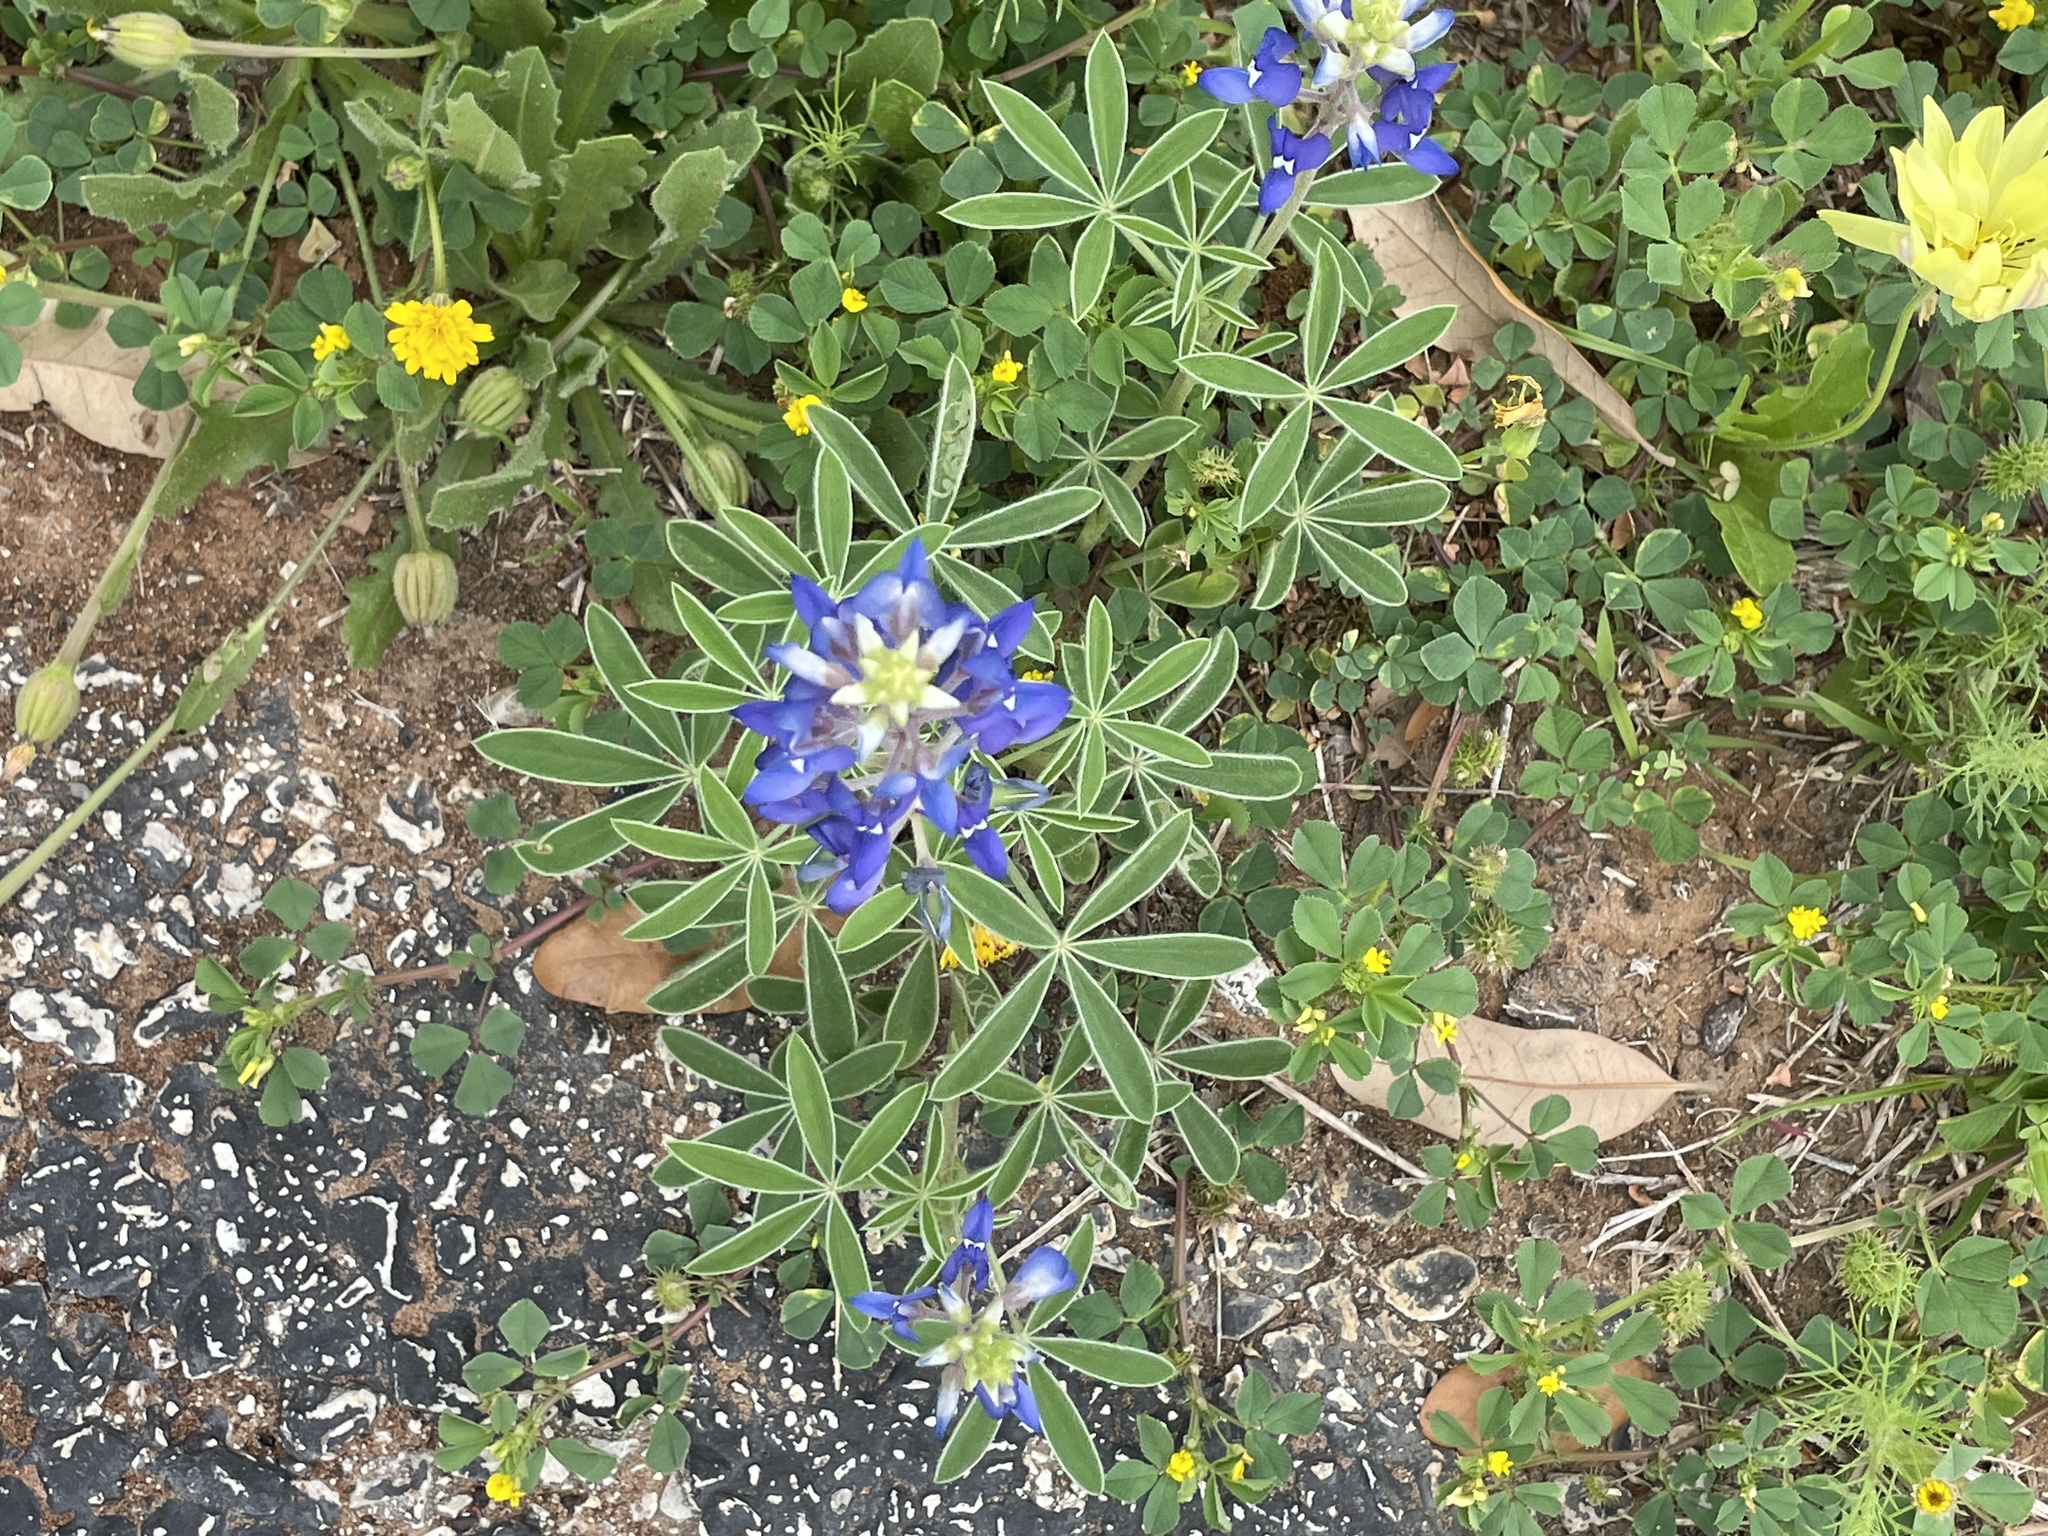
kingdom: Plantae
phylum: Tracheophyta
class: Magnoliopsida
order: Fabales
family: Fabaceae
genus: Lupinus
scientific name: Lupinus texensis
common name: Texas bluebonnet
